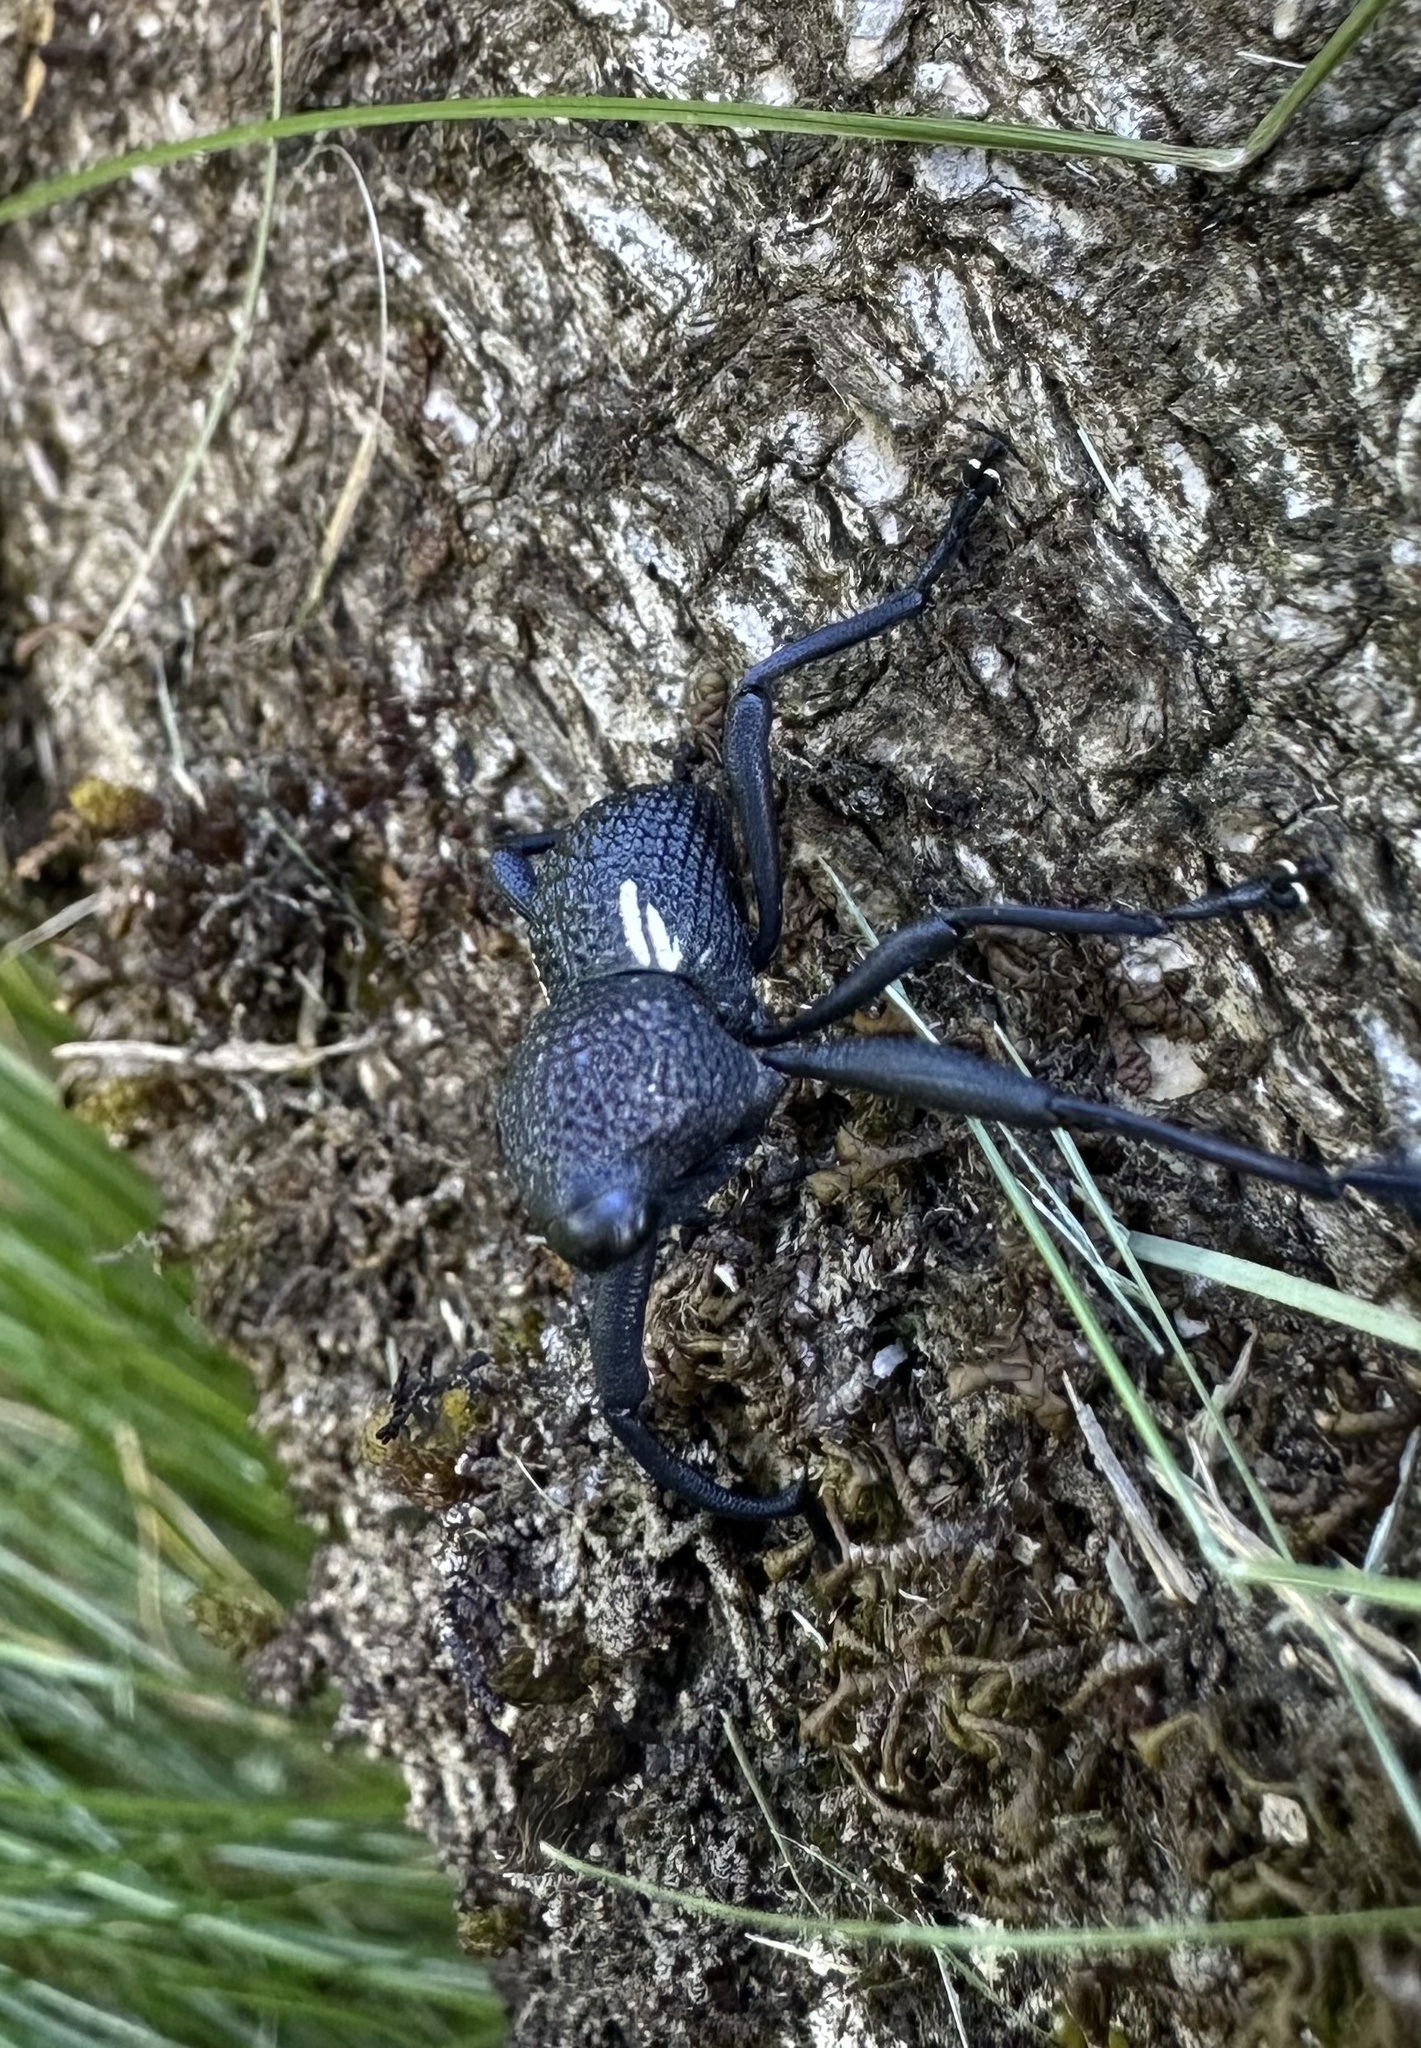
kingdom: Animalia
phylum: Arthropoda
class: Insecta
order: Coleoptera
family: Curculionidae
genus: Rhyephenes
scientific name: Rhyephenes humeralis
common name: Araè±ita chilena del pino
